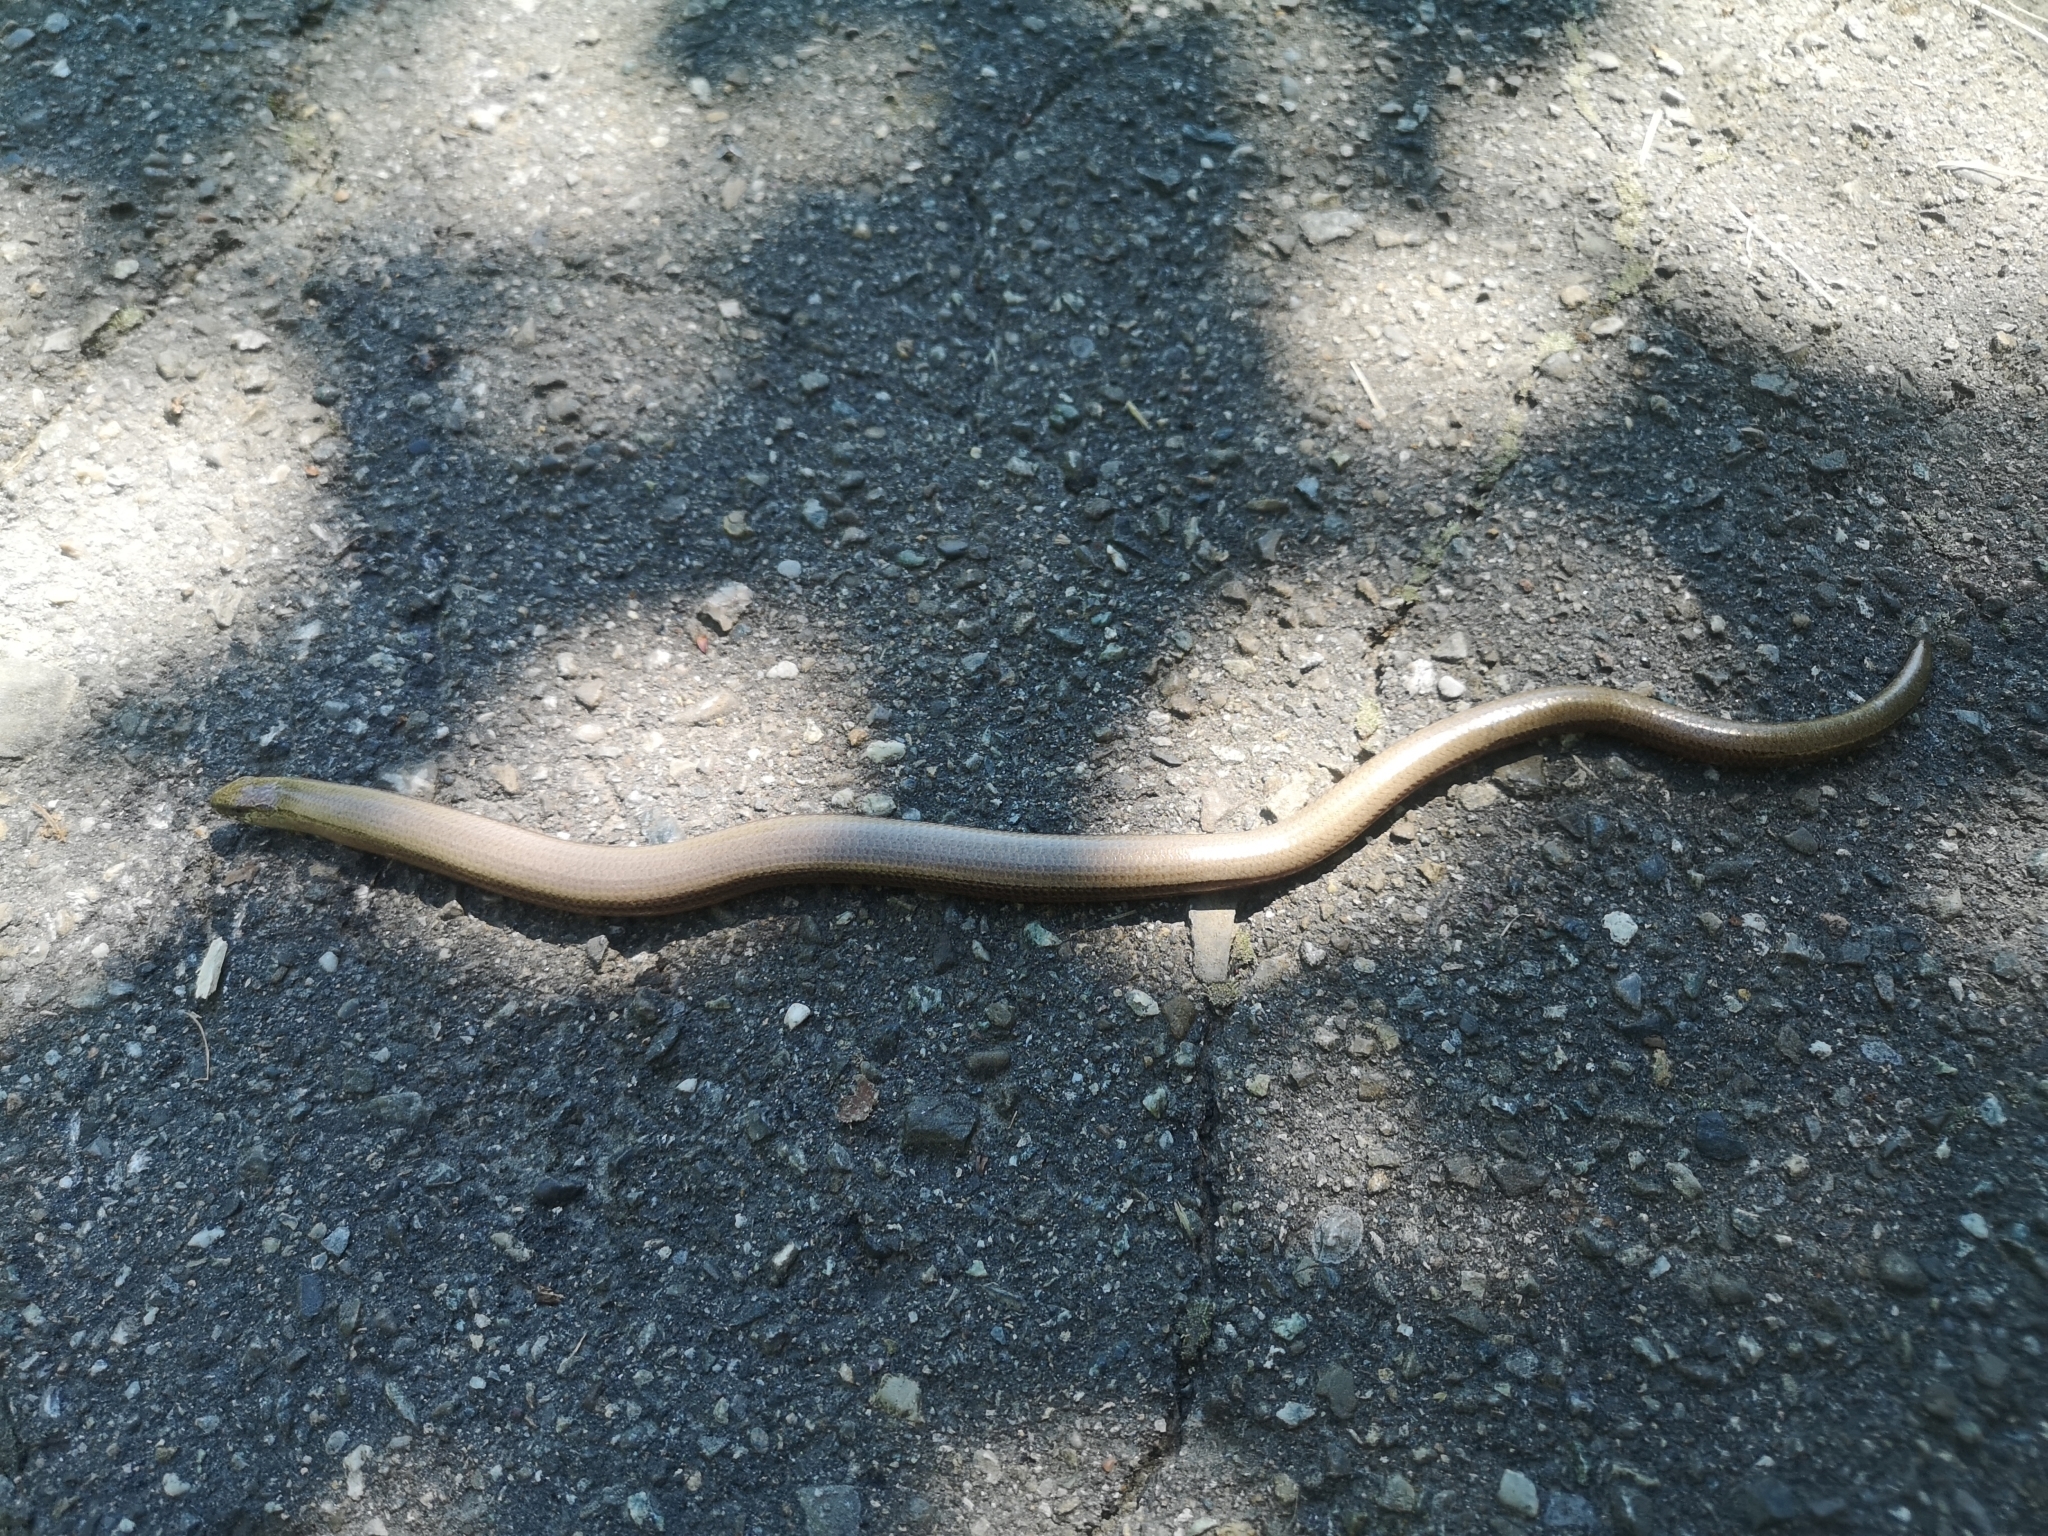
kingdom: Animalia
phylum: Chordata
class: Squamata
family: Anguidae
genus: Anguis
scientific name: Anguis fragilis
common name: Slow worm
